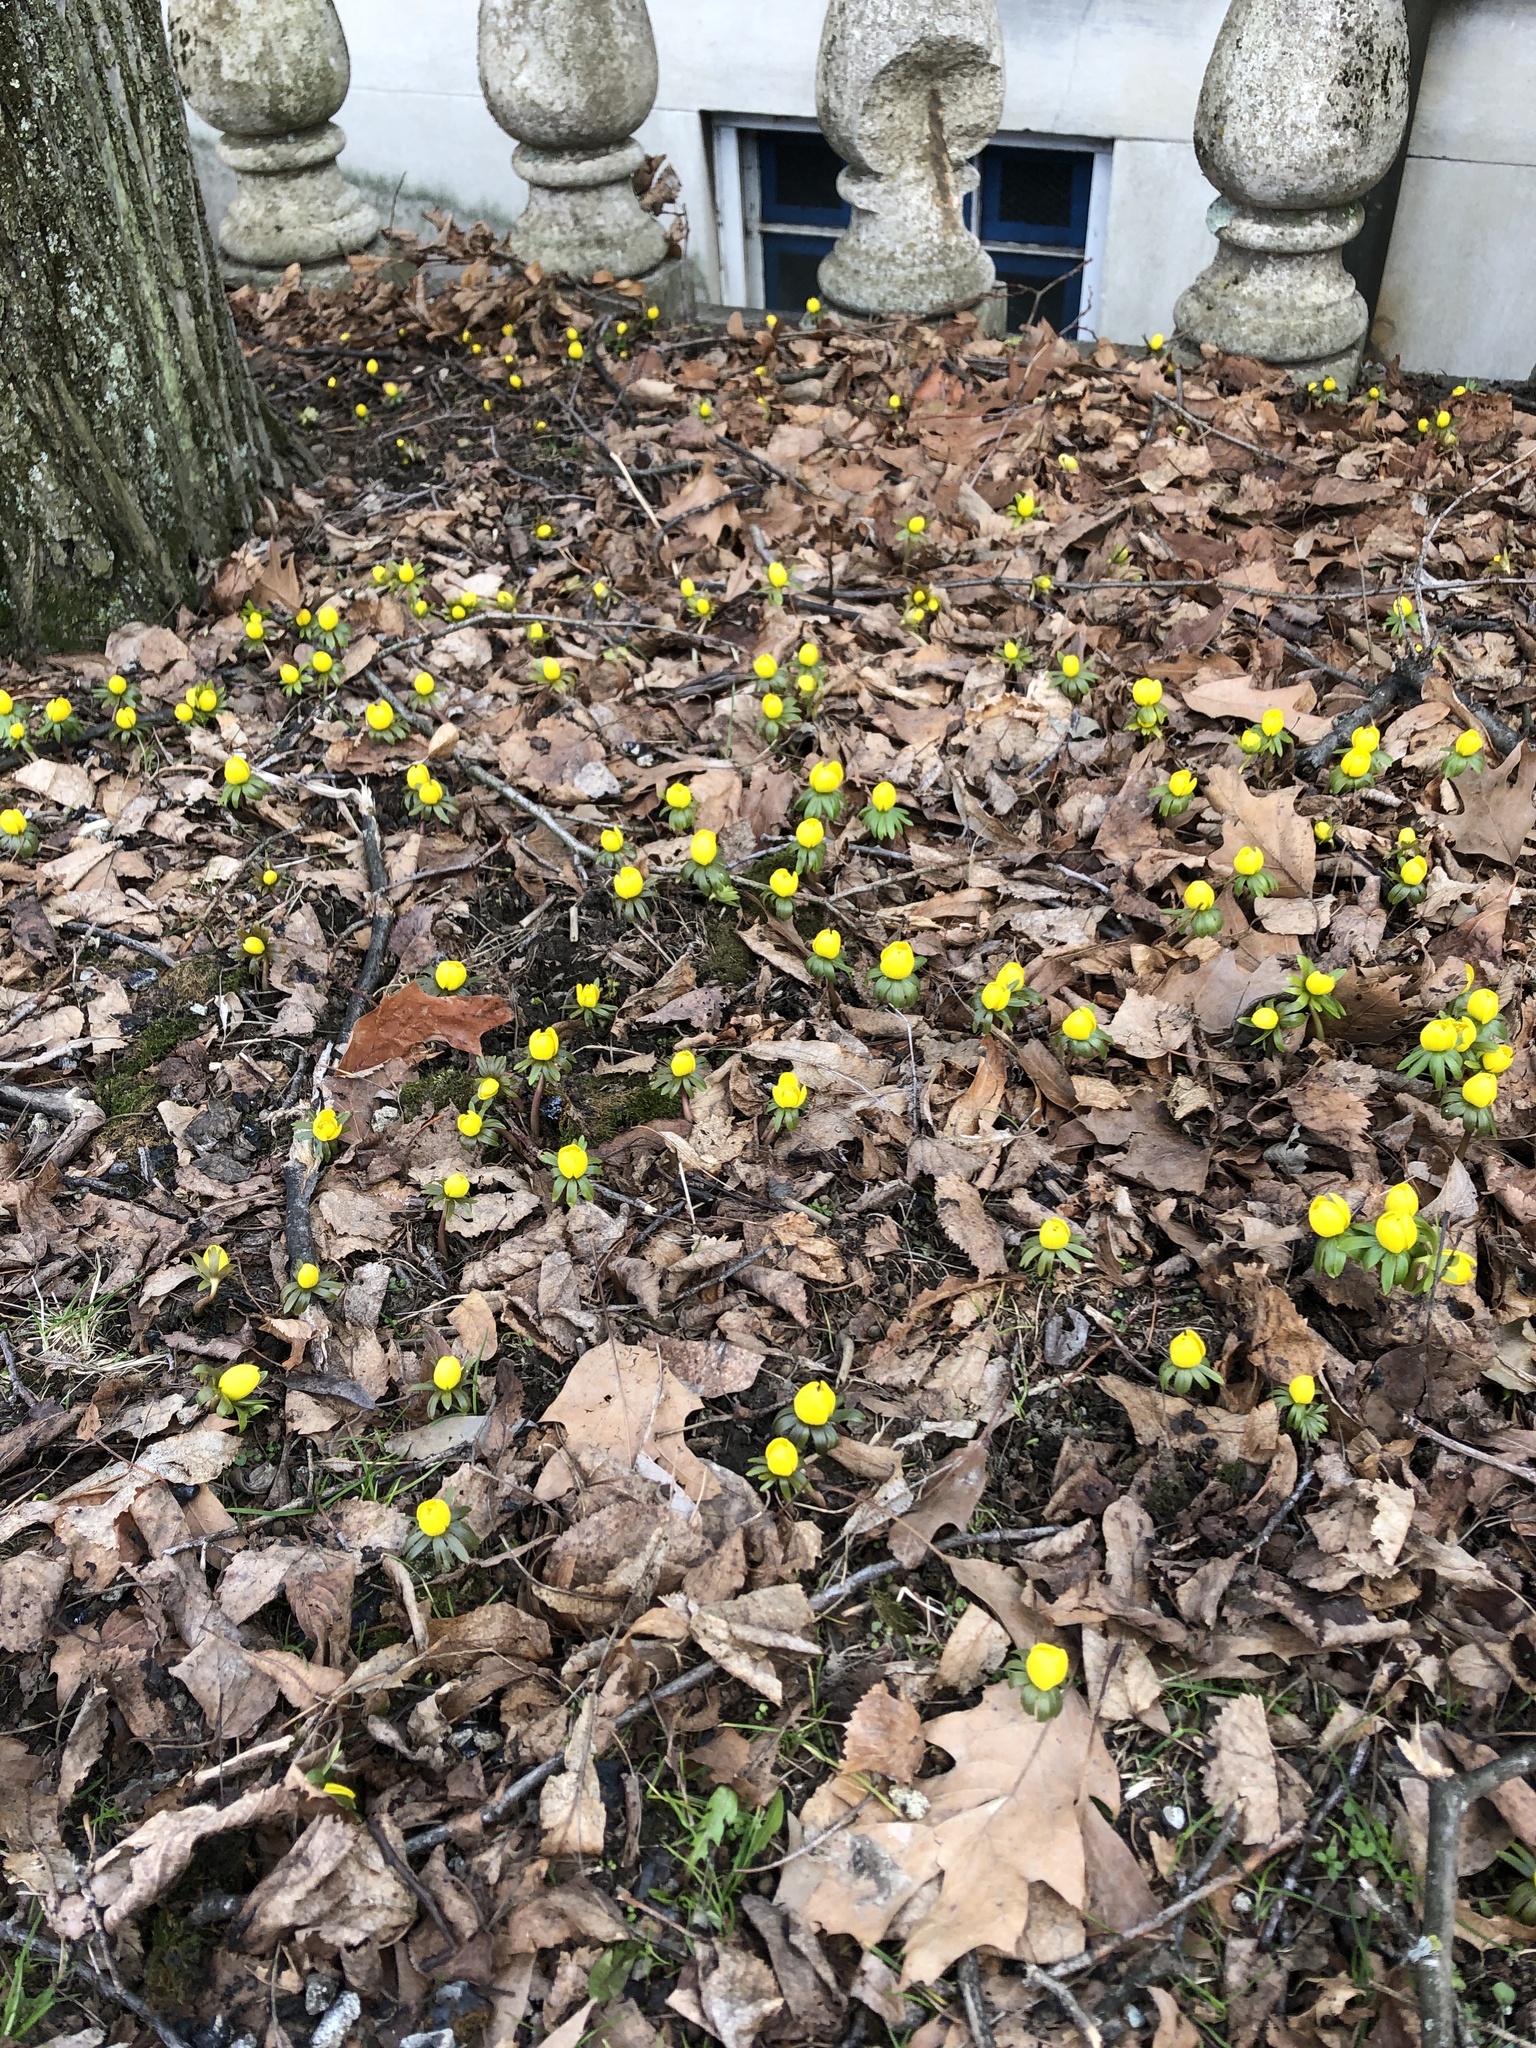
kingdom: Plantae
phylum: Tracheophyta
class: Magnoliopsida
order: Ranunculales
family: Ranunculaceae
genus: Eranthis
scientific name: Eranthis hyemalis
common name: Winter aconite
